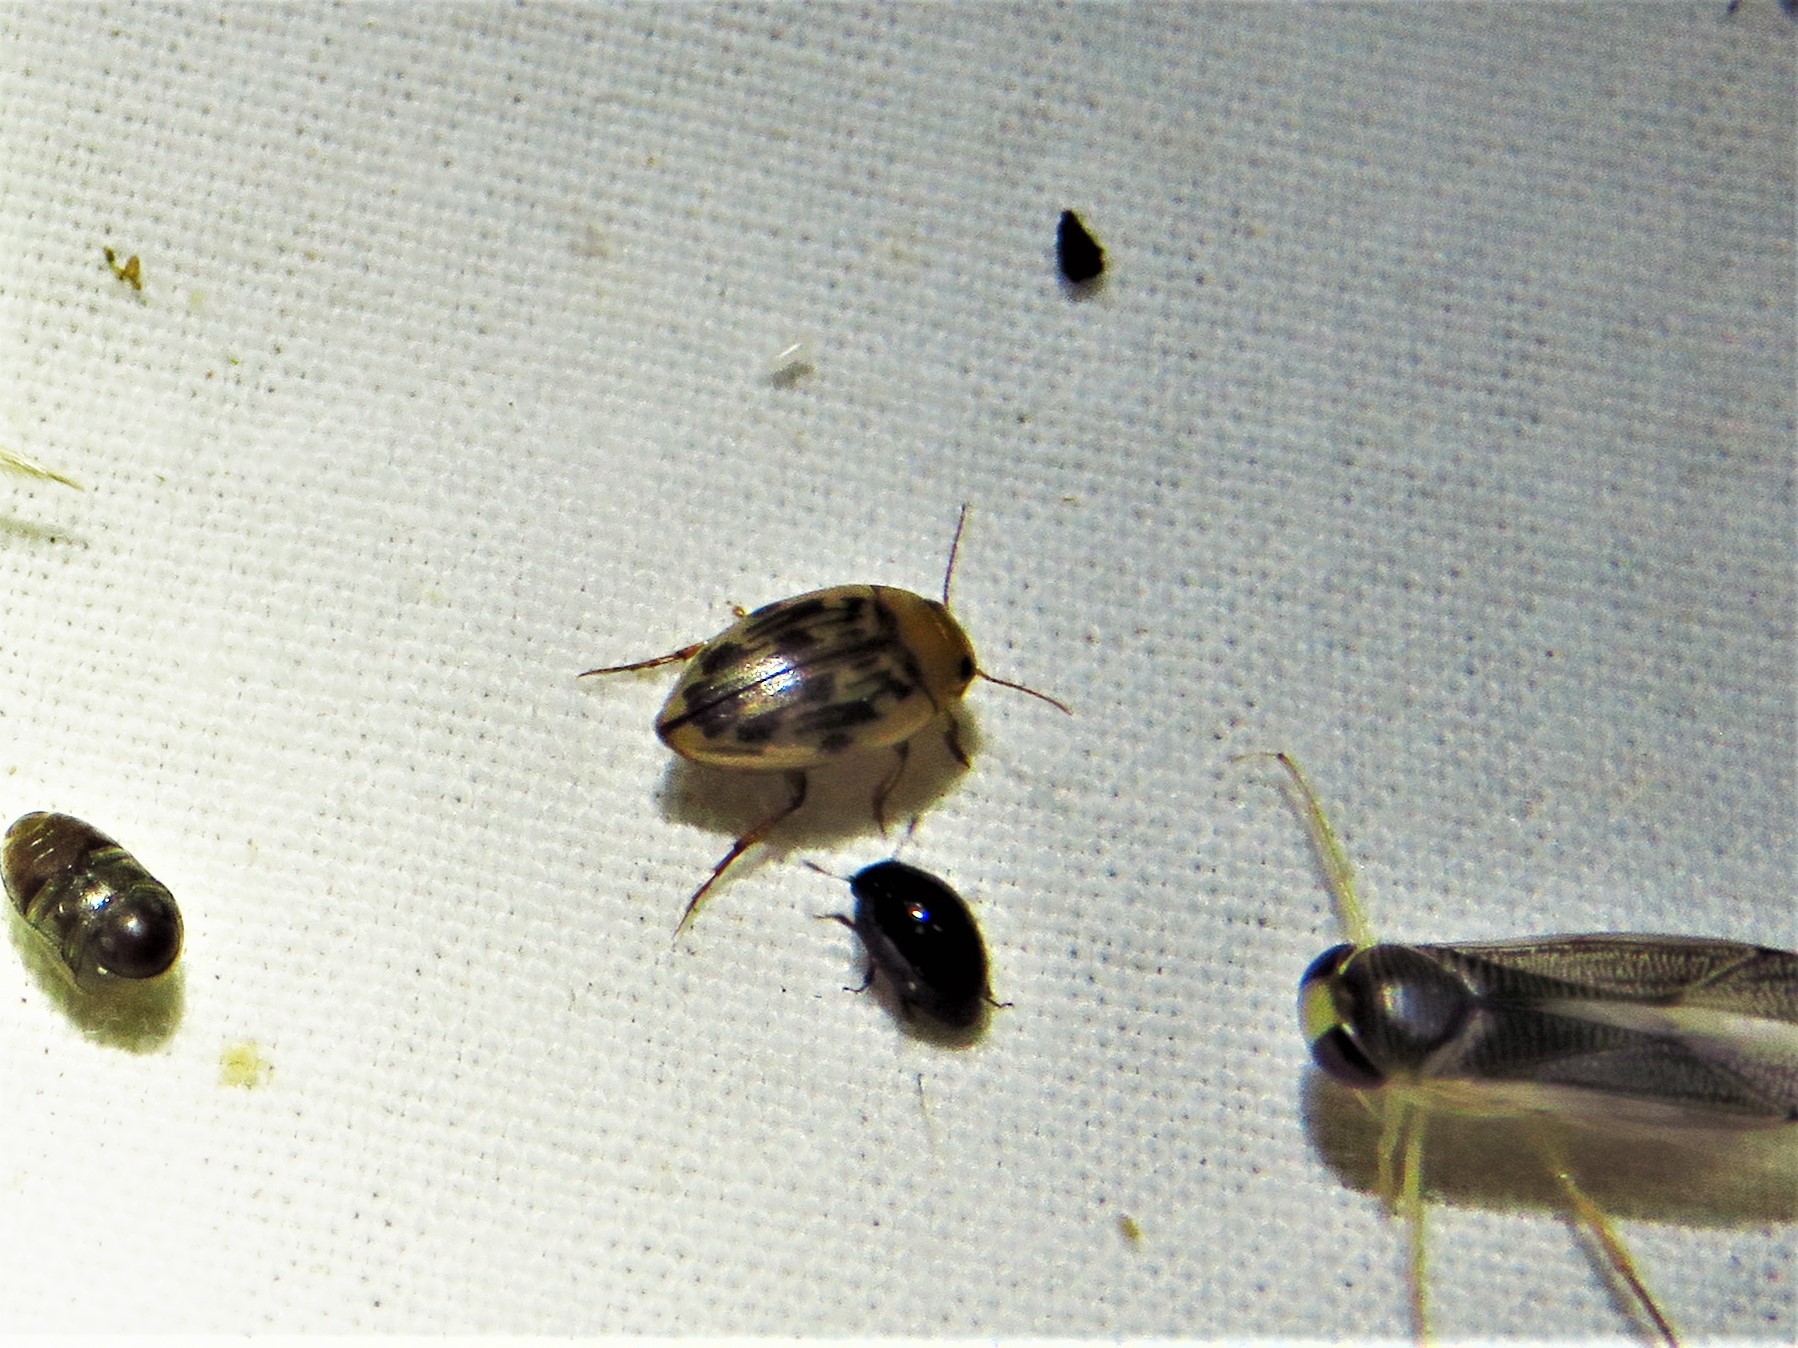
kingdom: Animalia
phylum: Arthropoda
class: Insecta
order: Coleoptera
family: Dytiscidae
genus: Neoporus
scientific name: Neoporus dimidiatus
